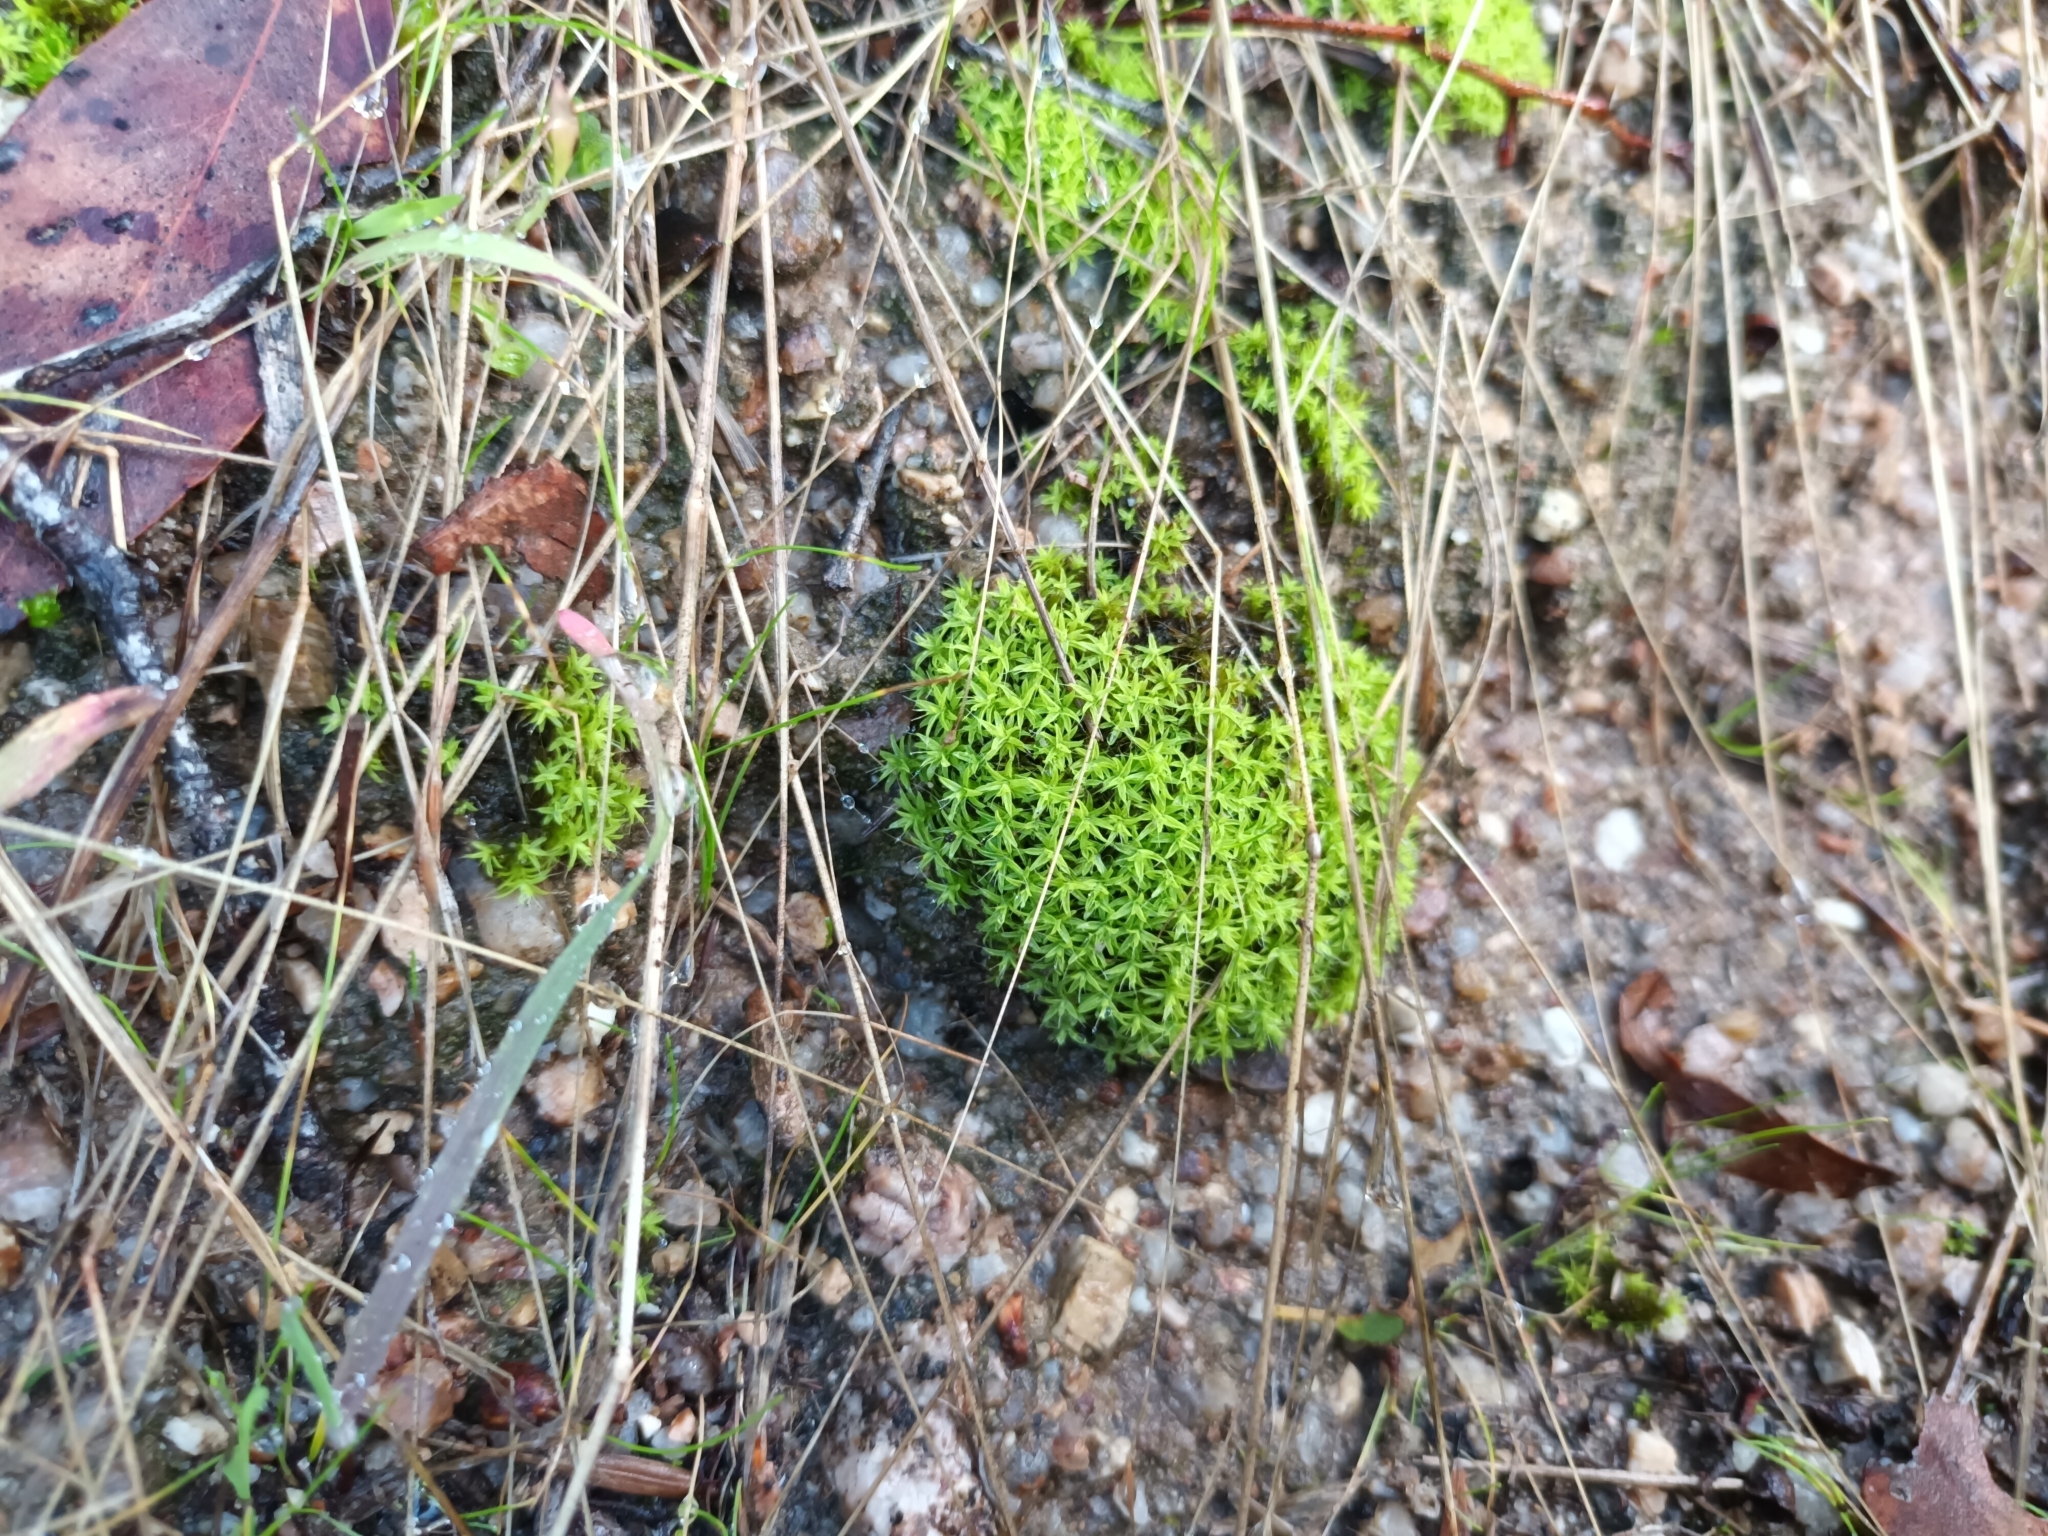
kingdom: Plantae
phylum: Bryophyta
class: Bryopsida
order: Pottiales
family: Pottiaceae
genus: Pseudocrossidium
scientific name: Pseudocrossidium crinitum
